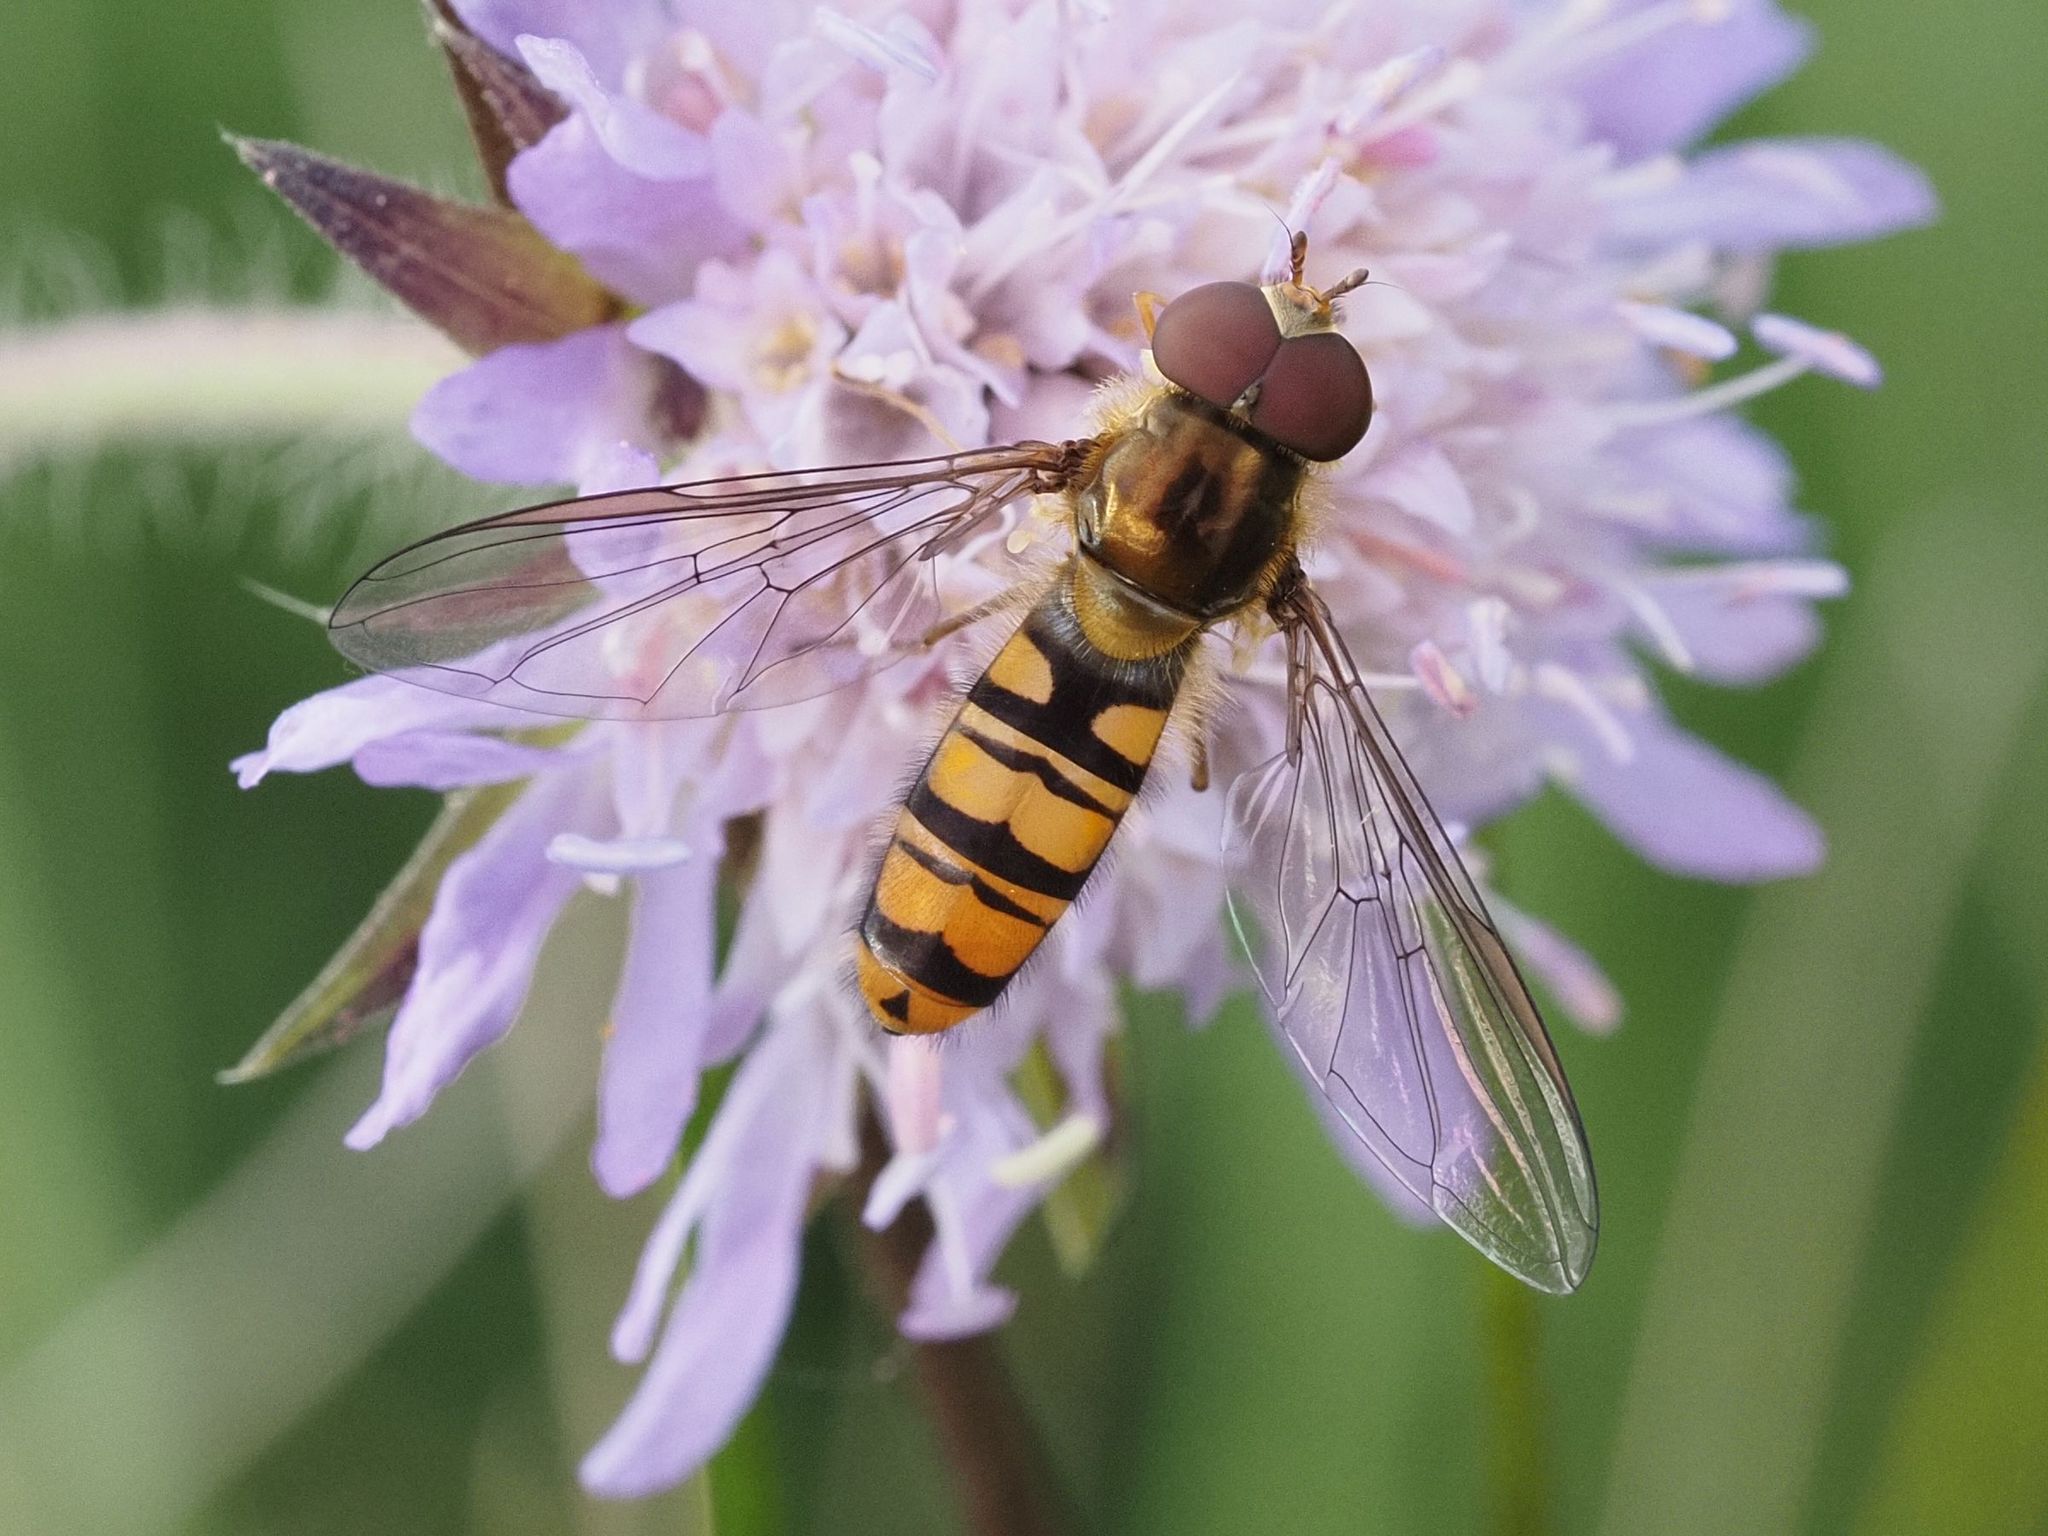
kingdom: Animalia
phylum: Arthropoda
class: Insecta
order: Diptera
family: Syrphidae
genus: Episyrphus
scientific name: Episyrphus balteatus
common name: Marmalade hoverfly
